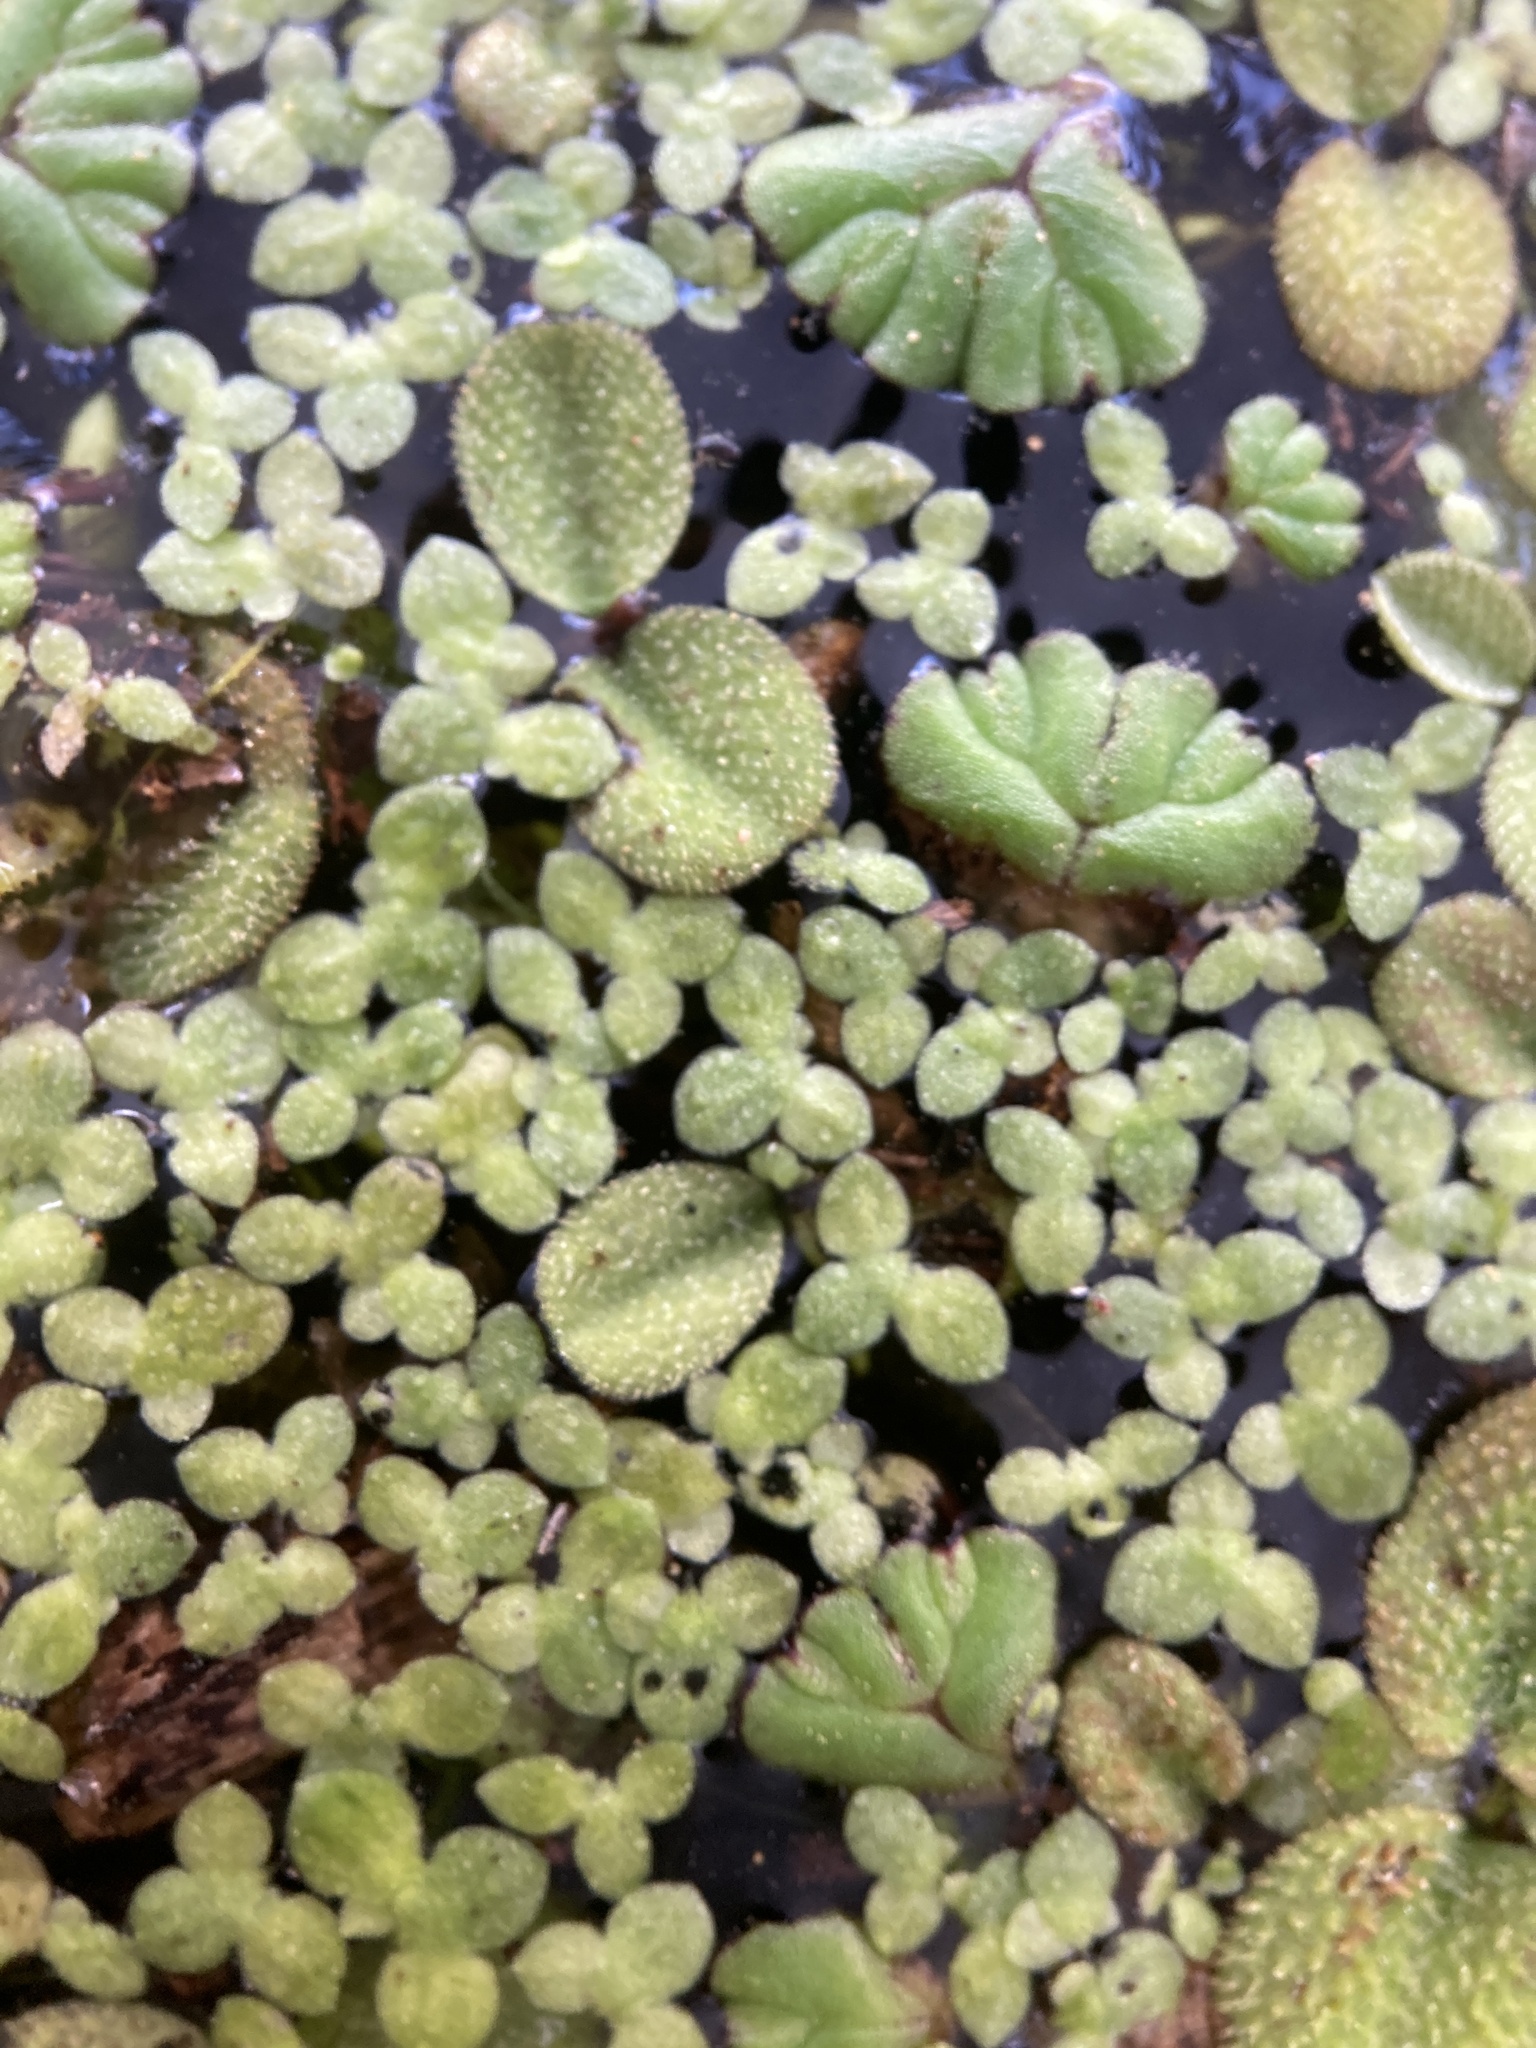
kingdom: Plantae
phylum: Tracheophyta
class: Polypodiopsida
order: Salviniales
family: Salviniaceae
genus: Salvinia
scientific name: Salvinia minima
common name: Water spangles
